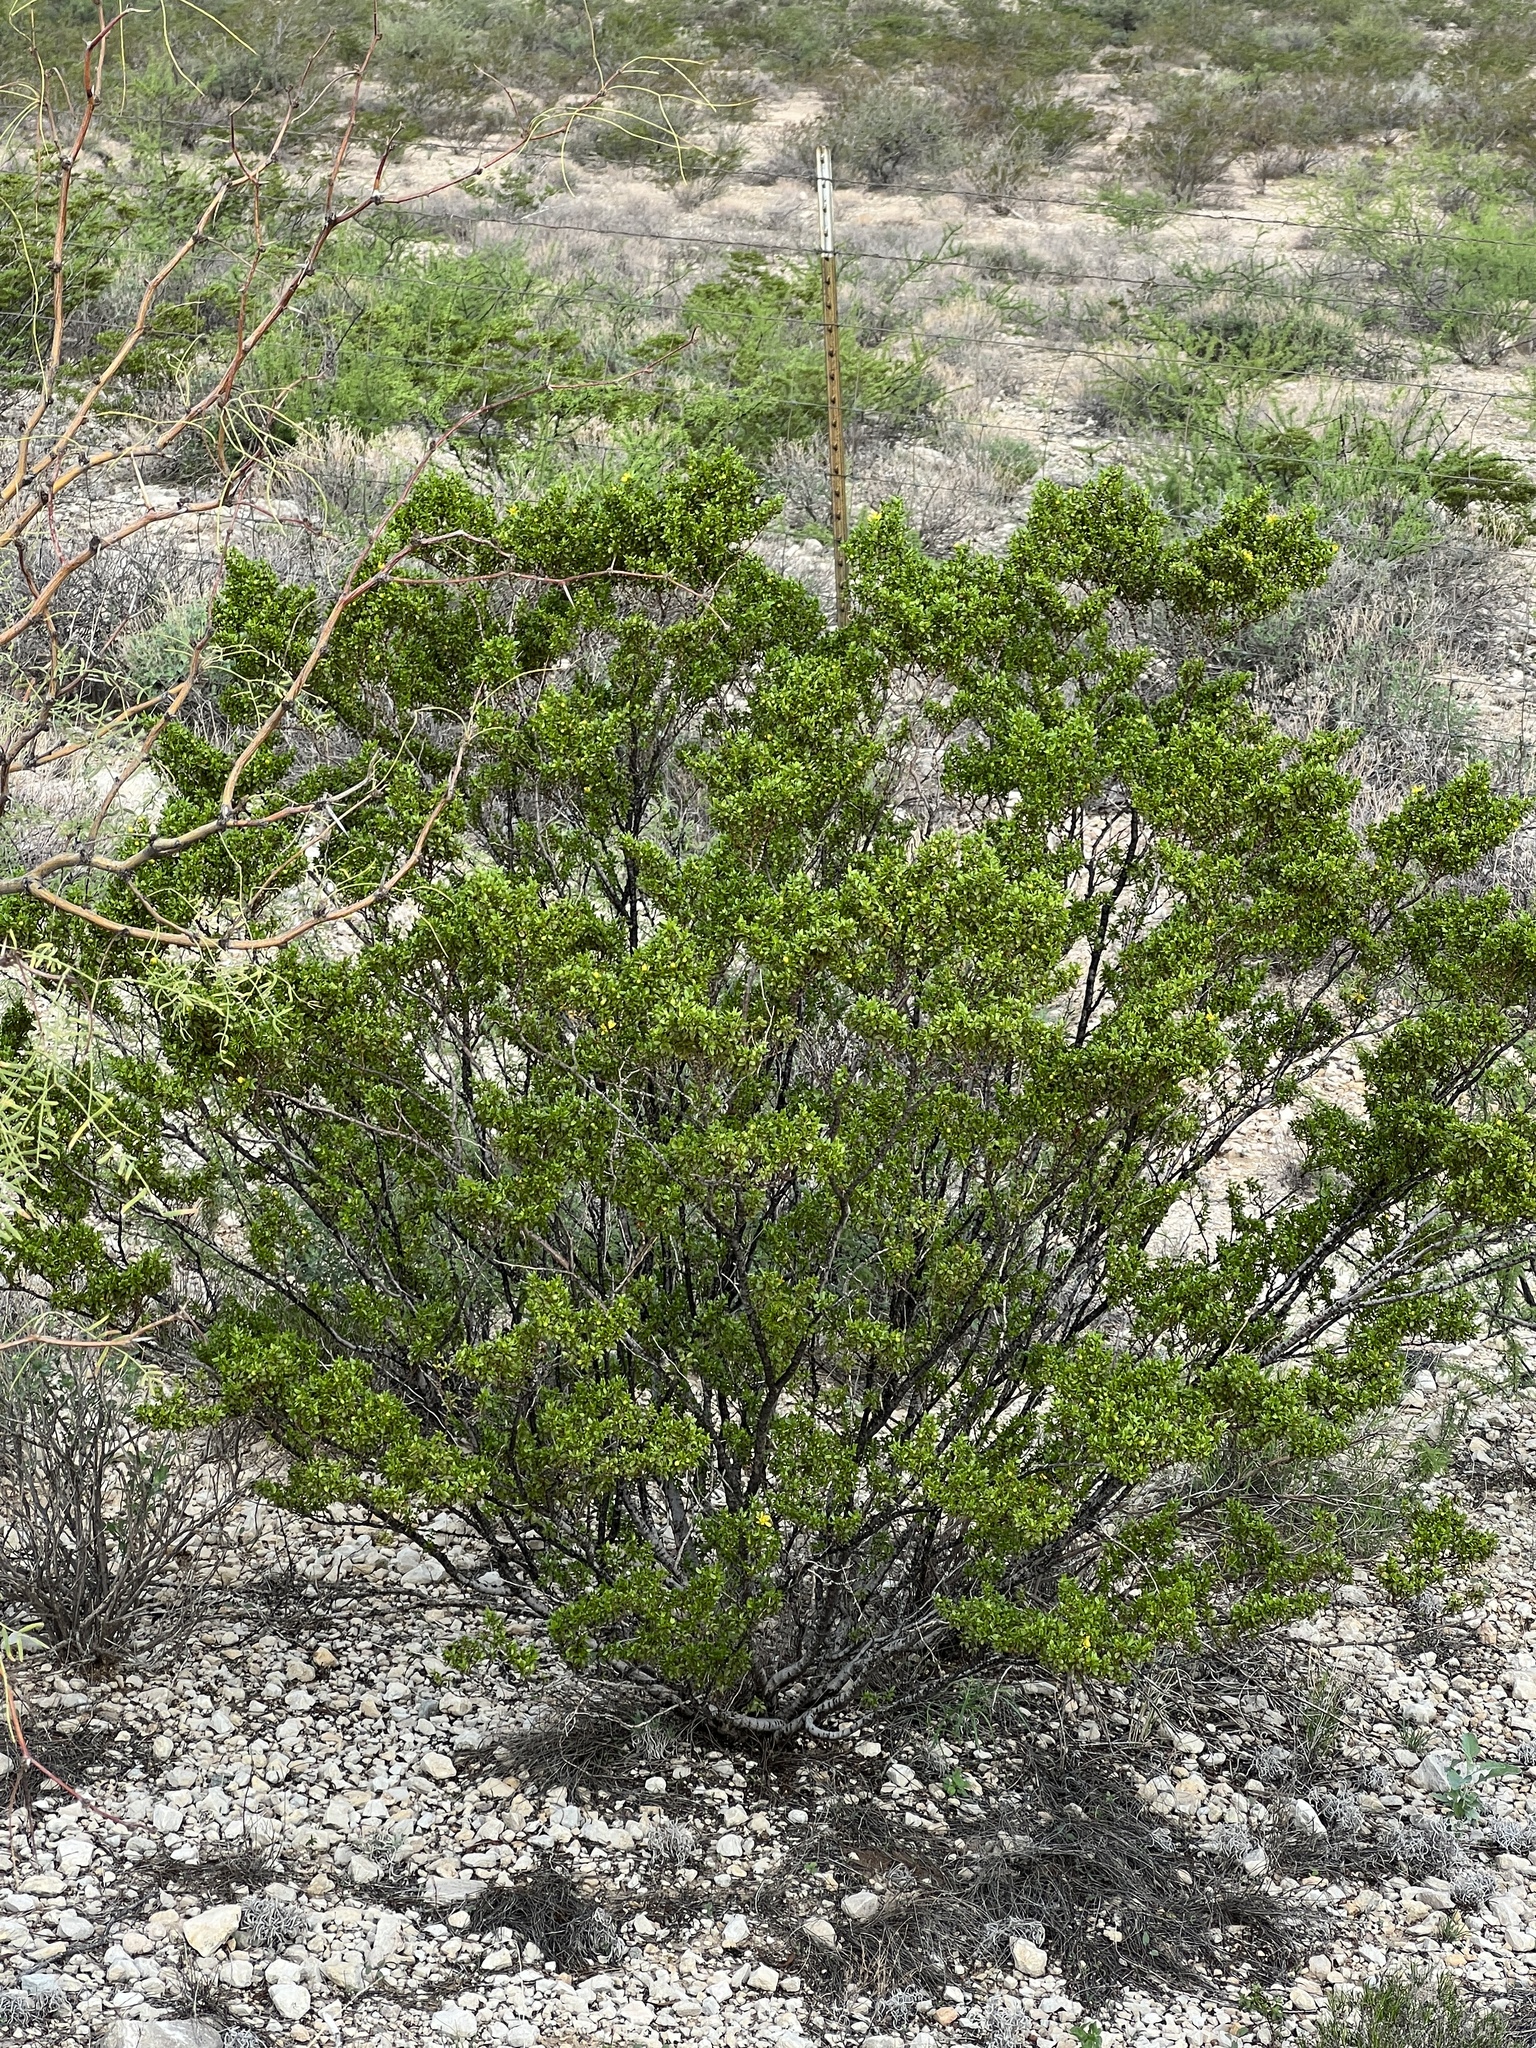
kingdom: Plantae
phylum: Tracheophyta
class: Magnoliopsida
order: Zygophyllales
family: Zygophyllaceae
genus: Larrea
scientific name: Larrea tridentata
